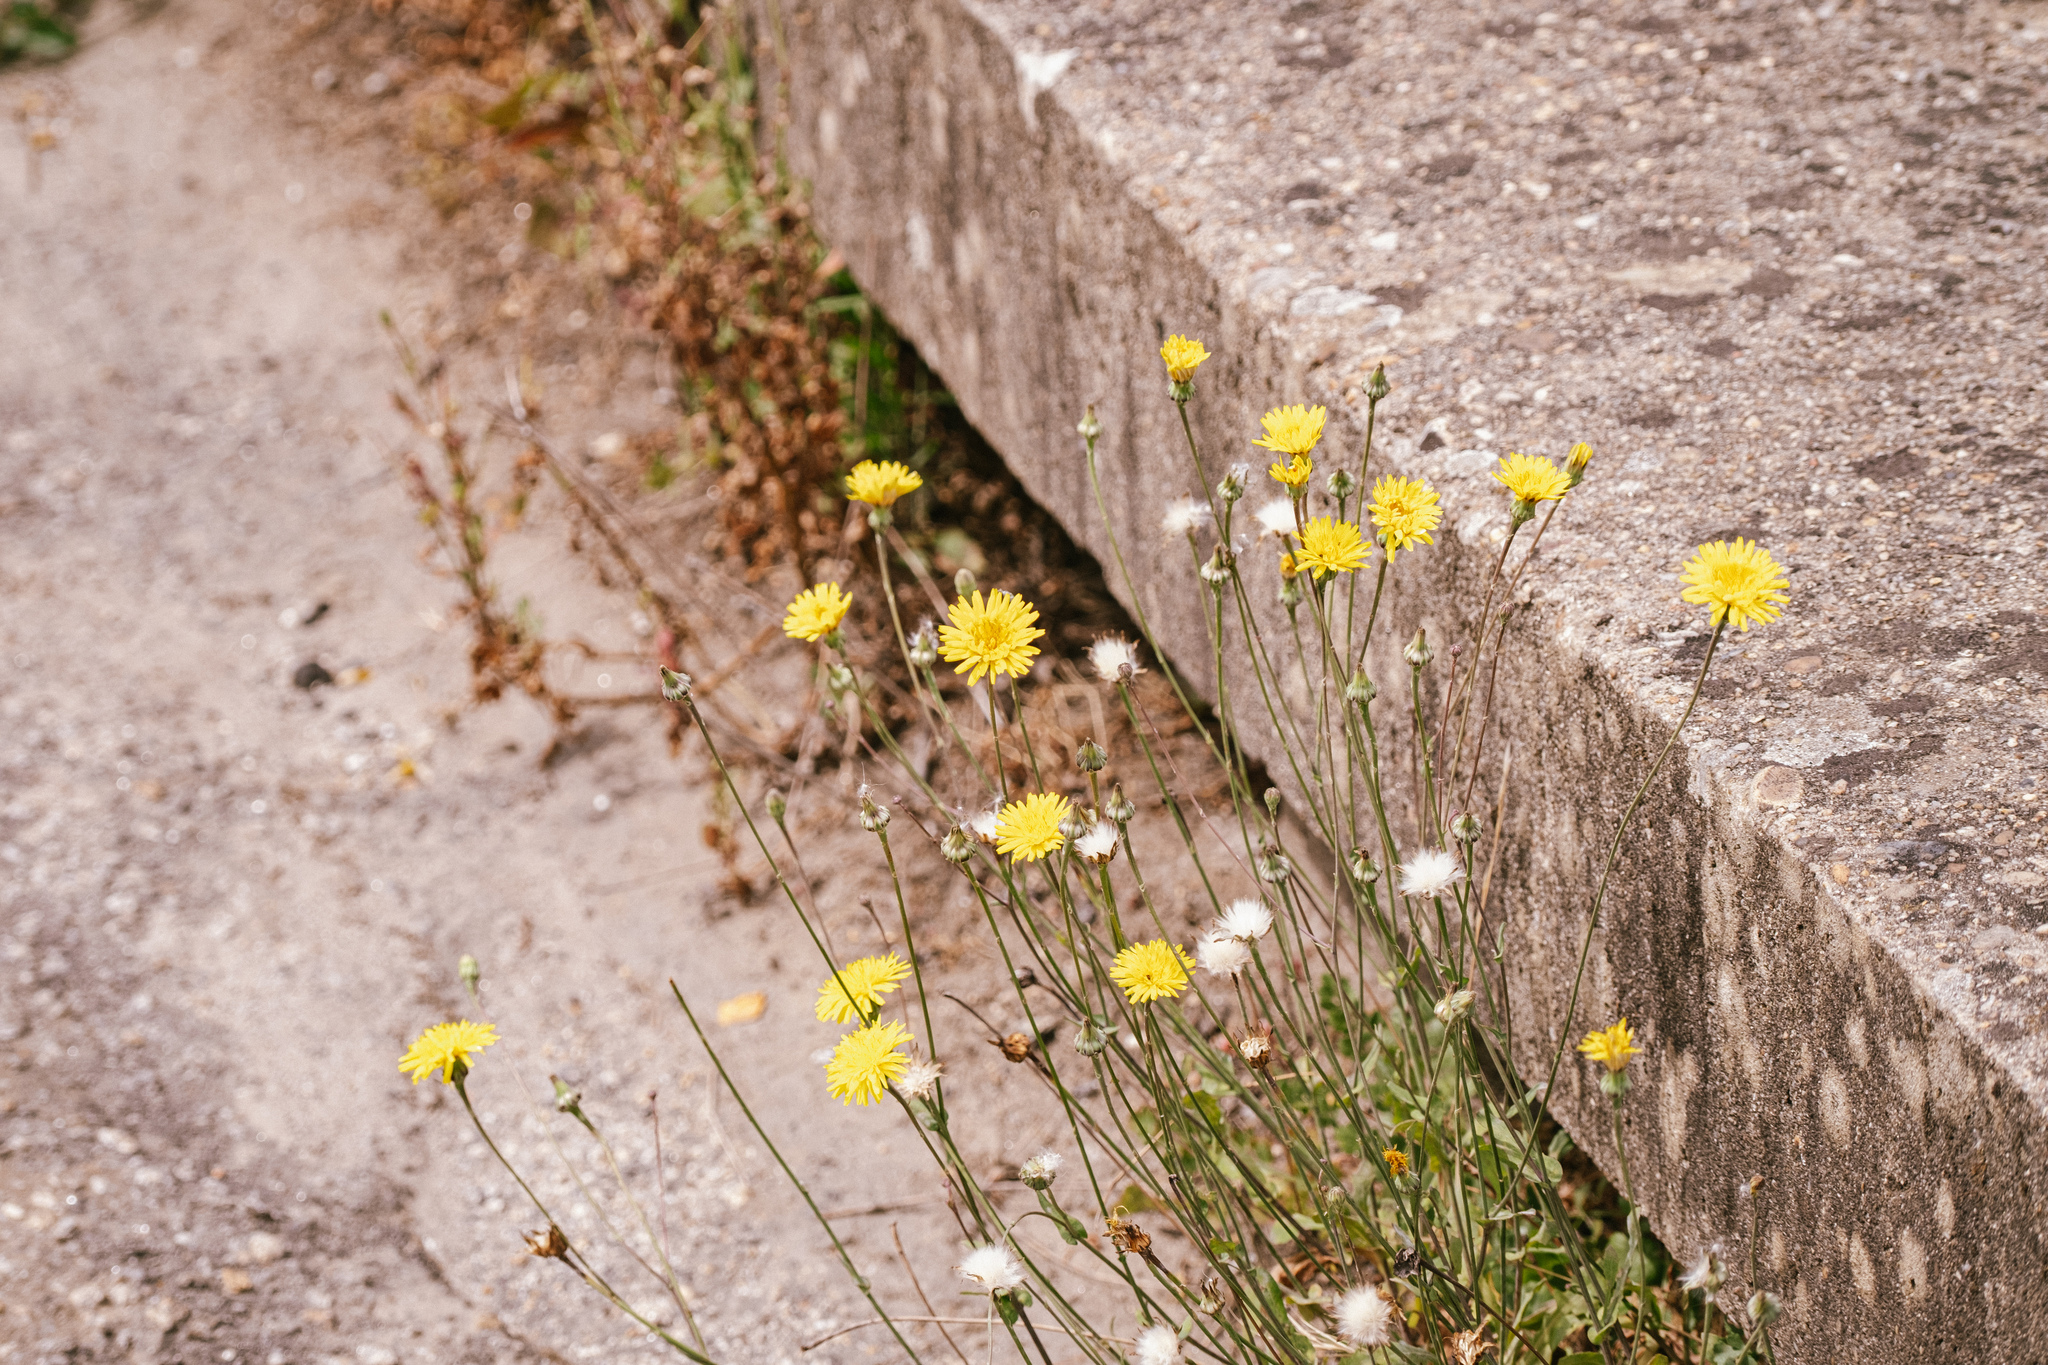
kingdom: Plantae
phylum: Tracheophyta
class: Magnoliopsida
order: Asterales
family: Asteraceae
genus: Reichardia
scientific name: Reichardia picroides
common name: Common brighteyes
